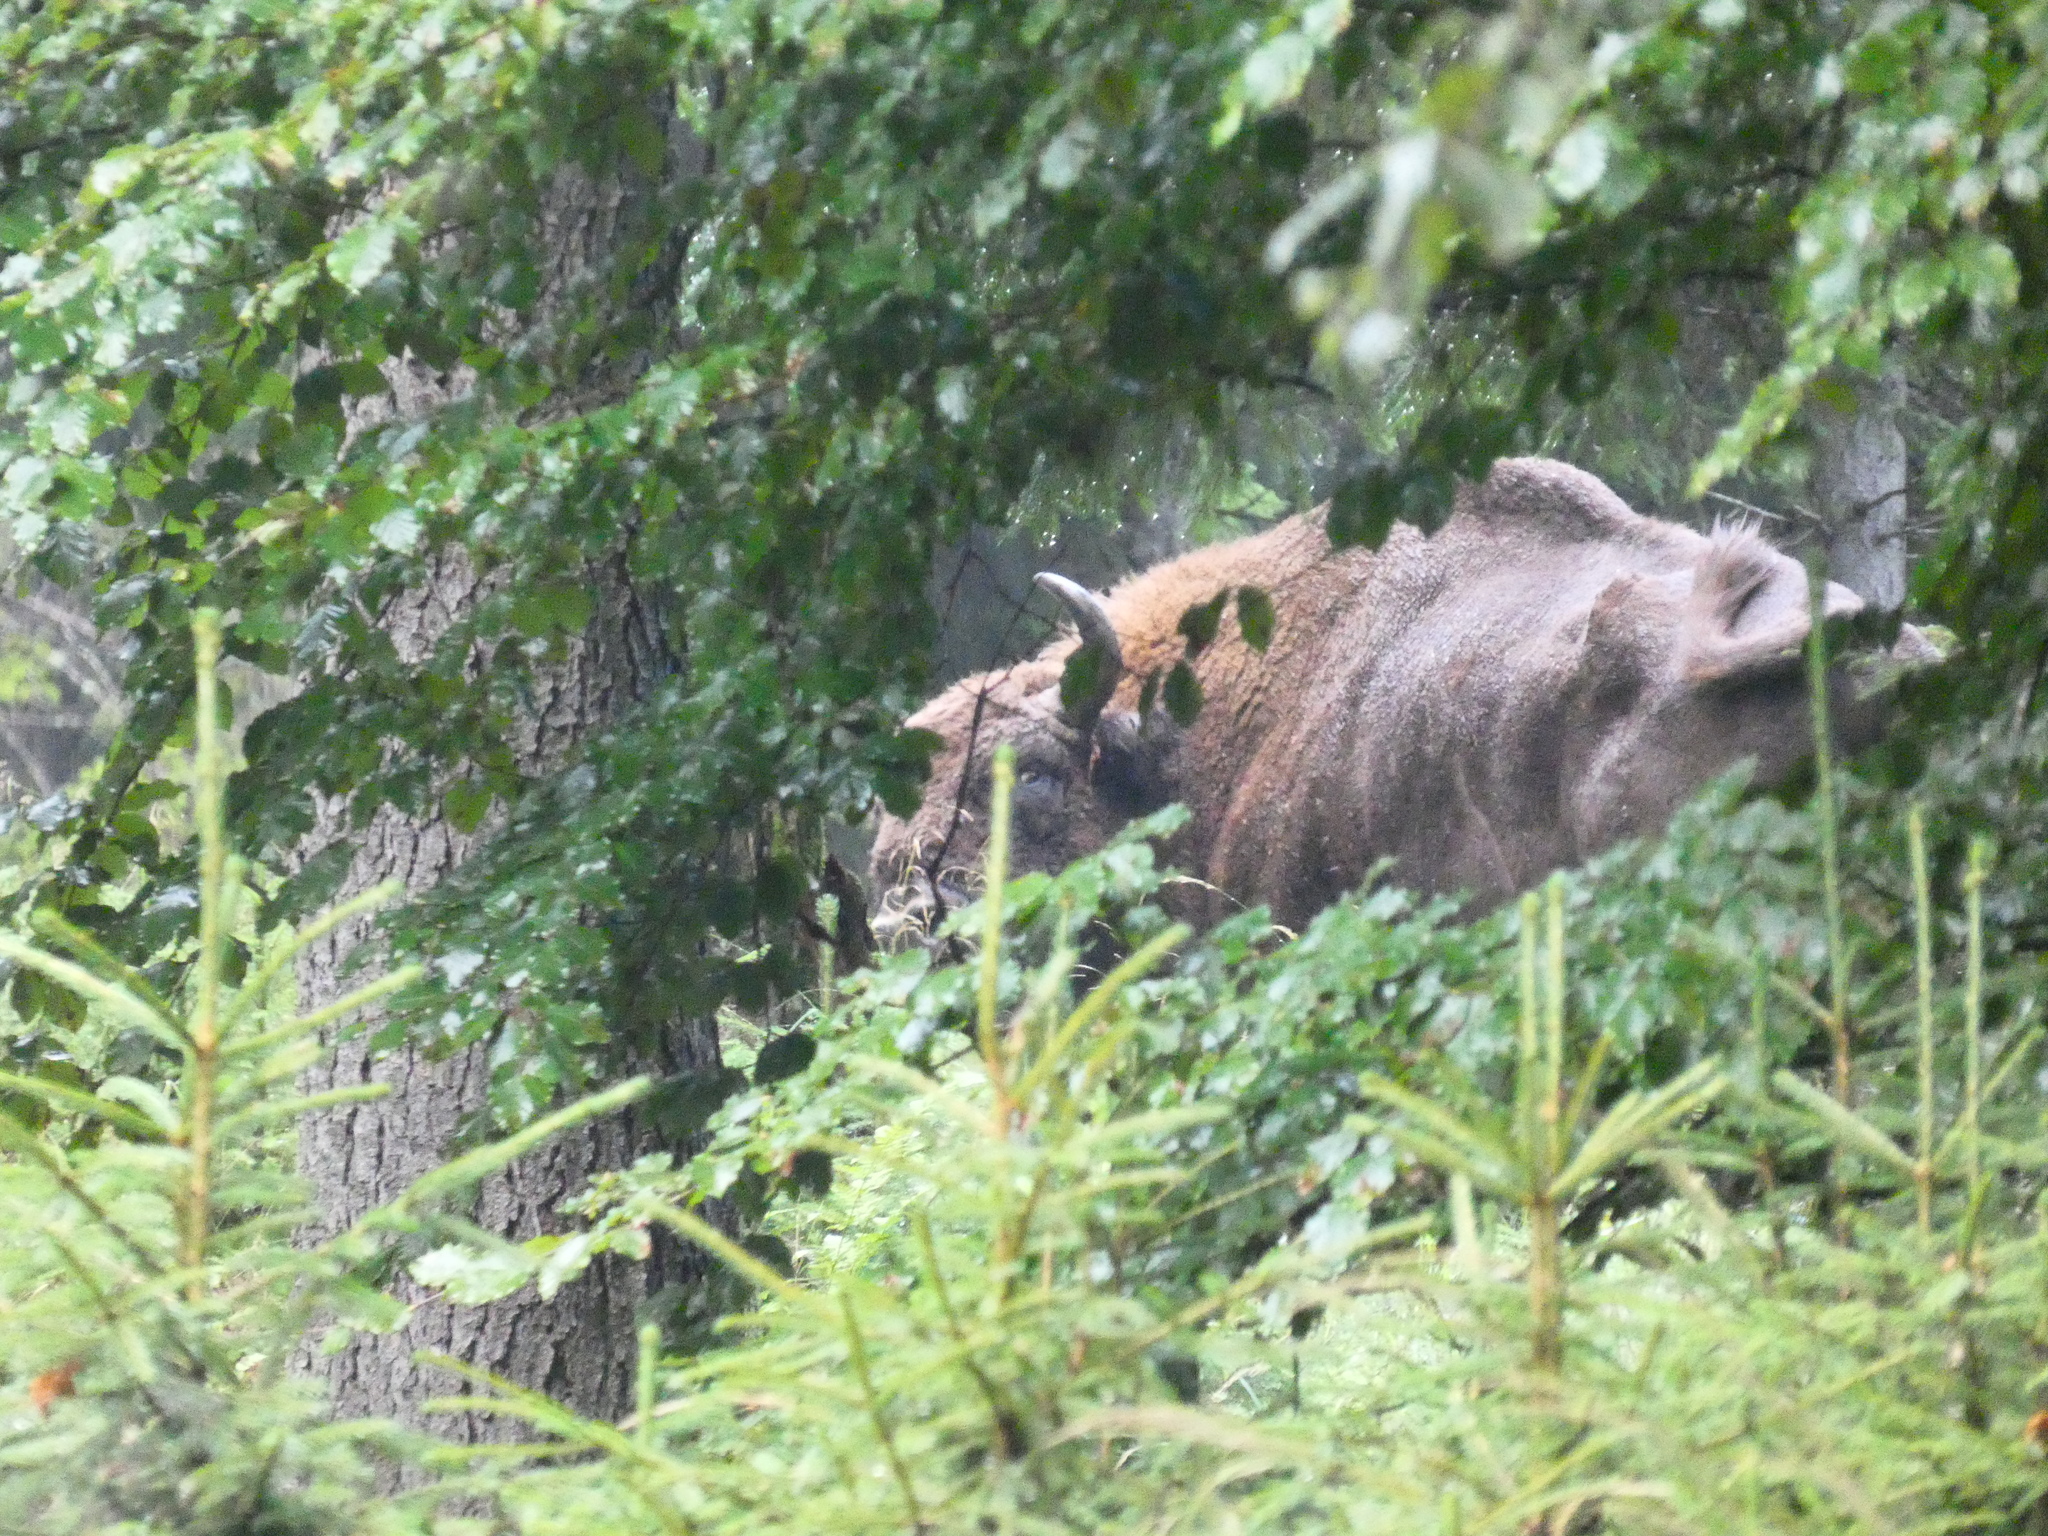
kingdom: Animalia
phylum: Chordata
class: Mammalia
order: Artiodactyla
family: Bovidae
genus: Bison
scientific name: Bison bonasus
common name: European bison
